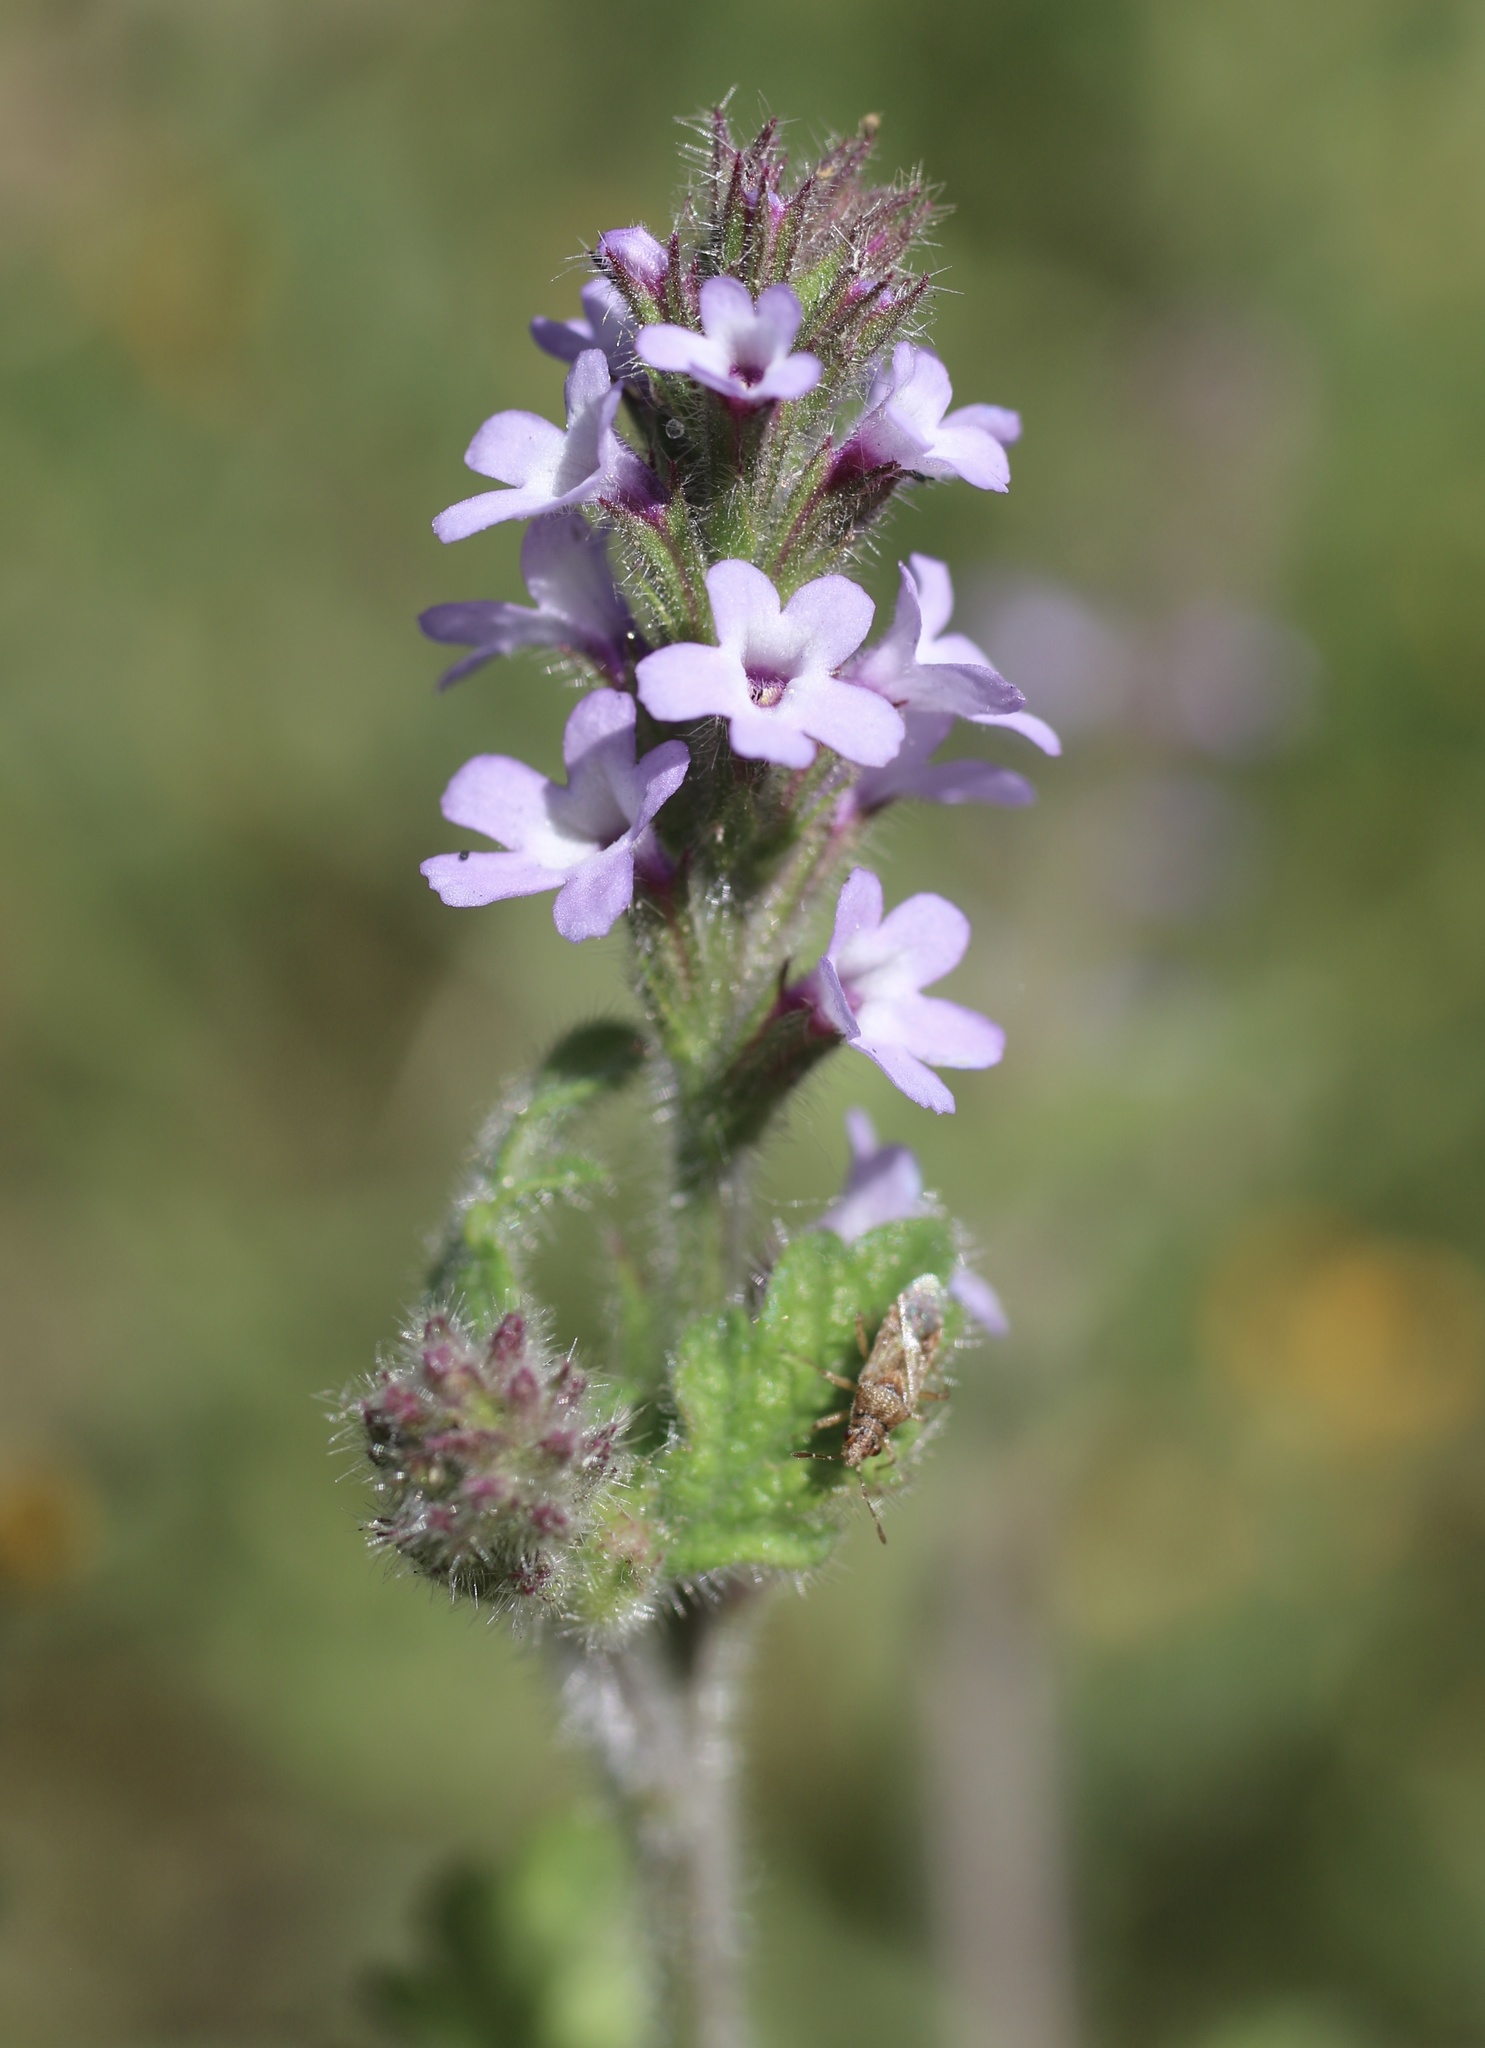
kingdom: Plantae
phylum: Tracheophyta
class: Magnoliopsida
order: Lamiales
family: Verbenaceae
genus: Verbena
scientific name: Verbena lasiostachys
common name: Vervain
